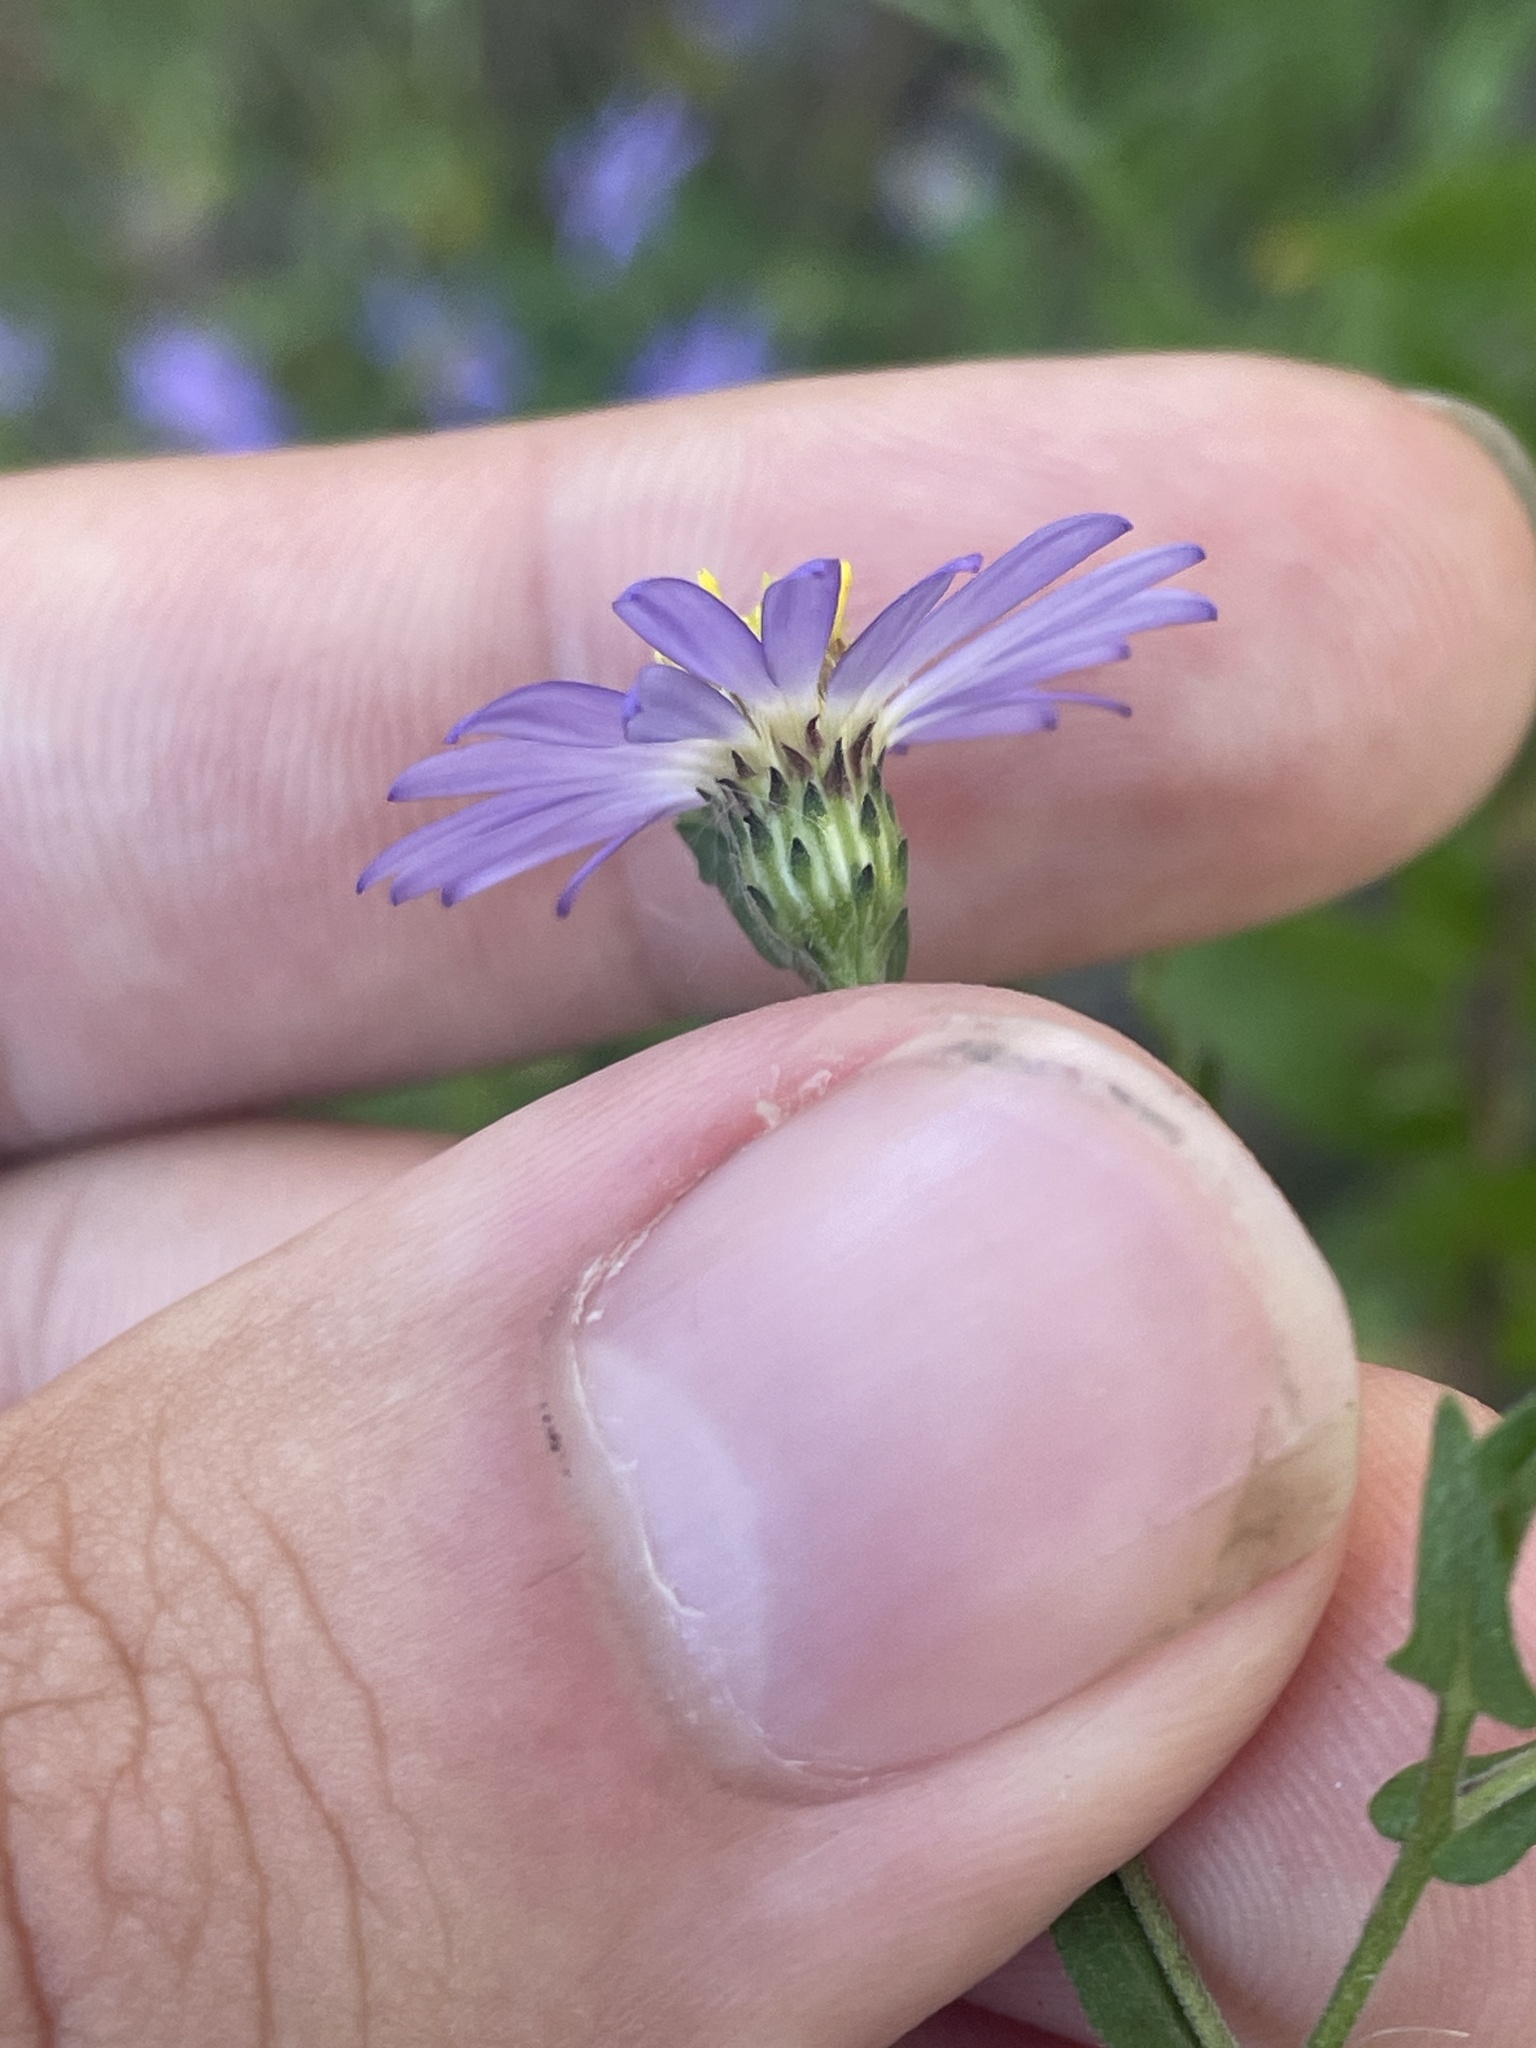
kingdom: Plantae
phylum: Tracheophyta
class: Magnoliopsida
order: Asterales
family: Asteraceae
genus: Symphyotrichum
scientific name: Symphyotrichum patens
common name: Late purple aster
